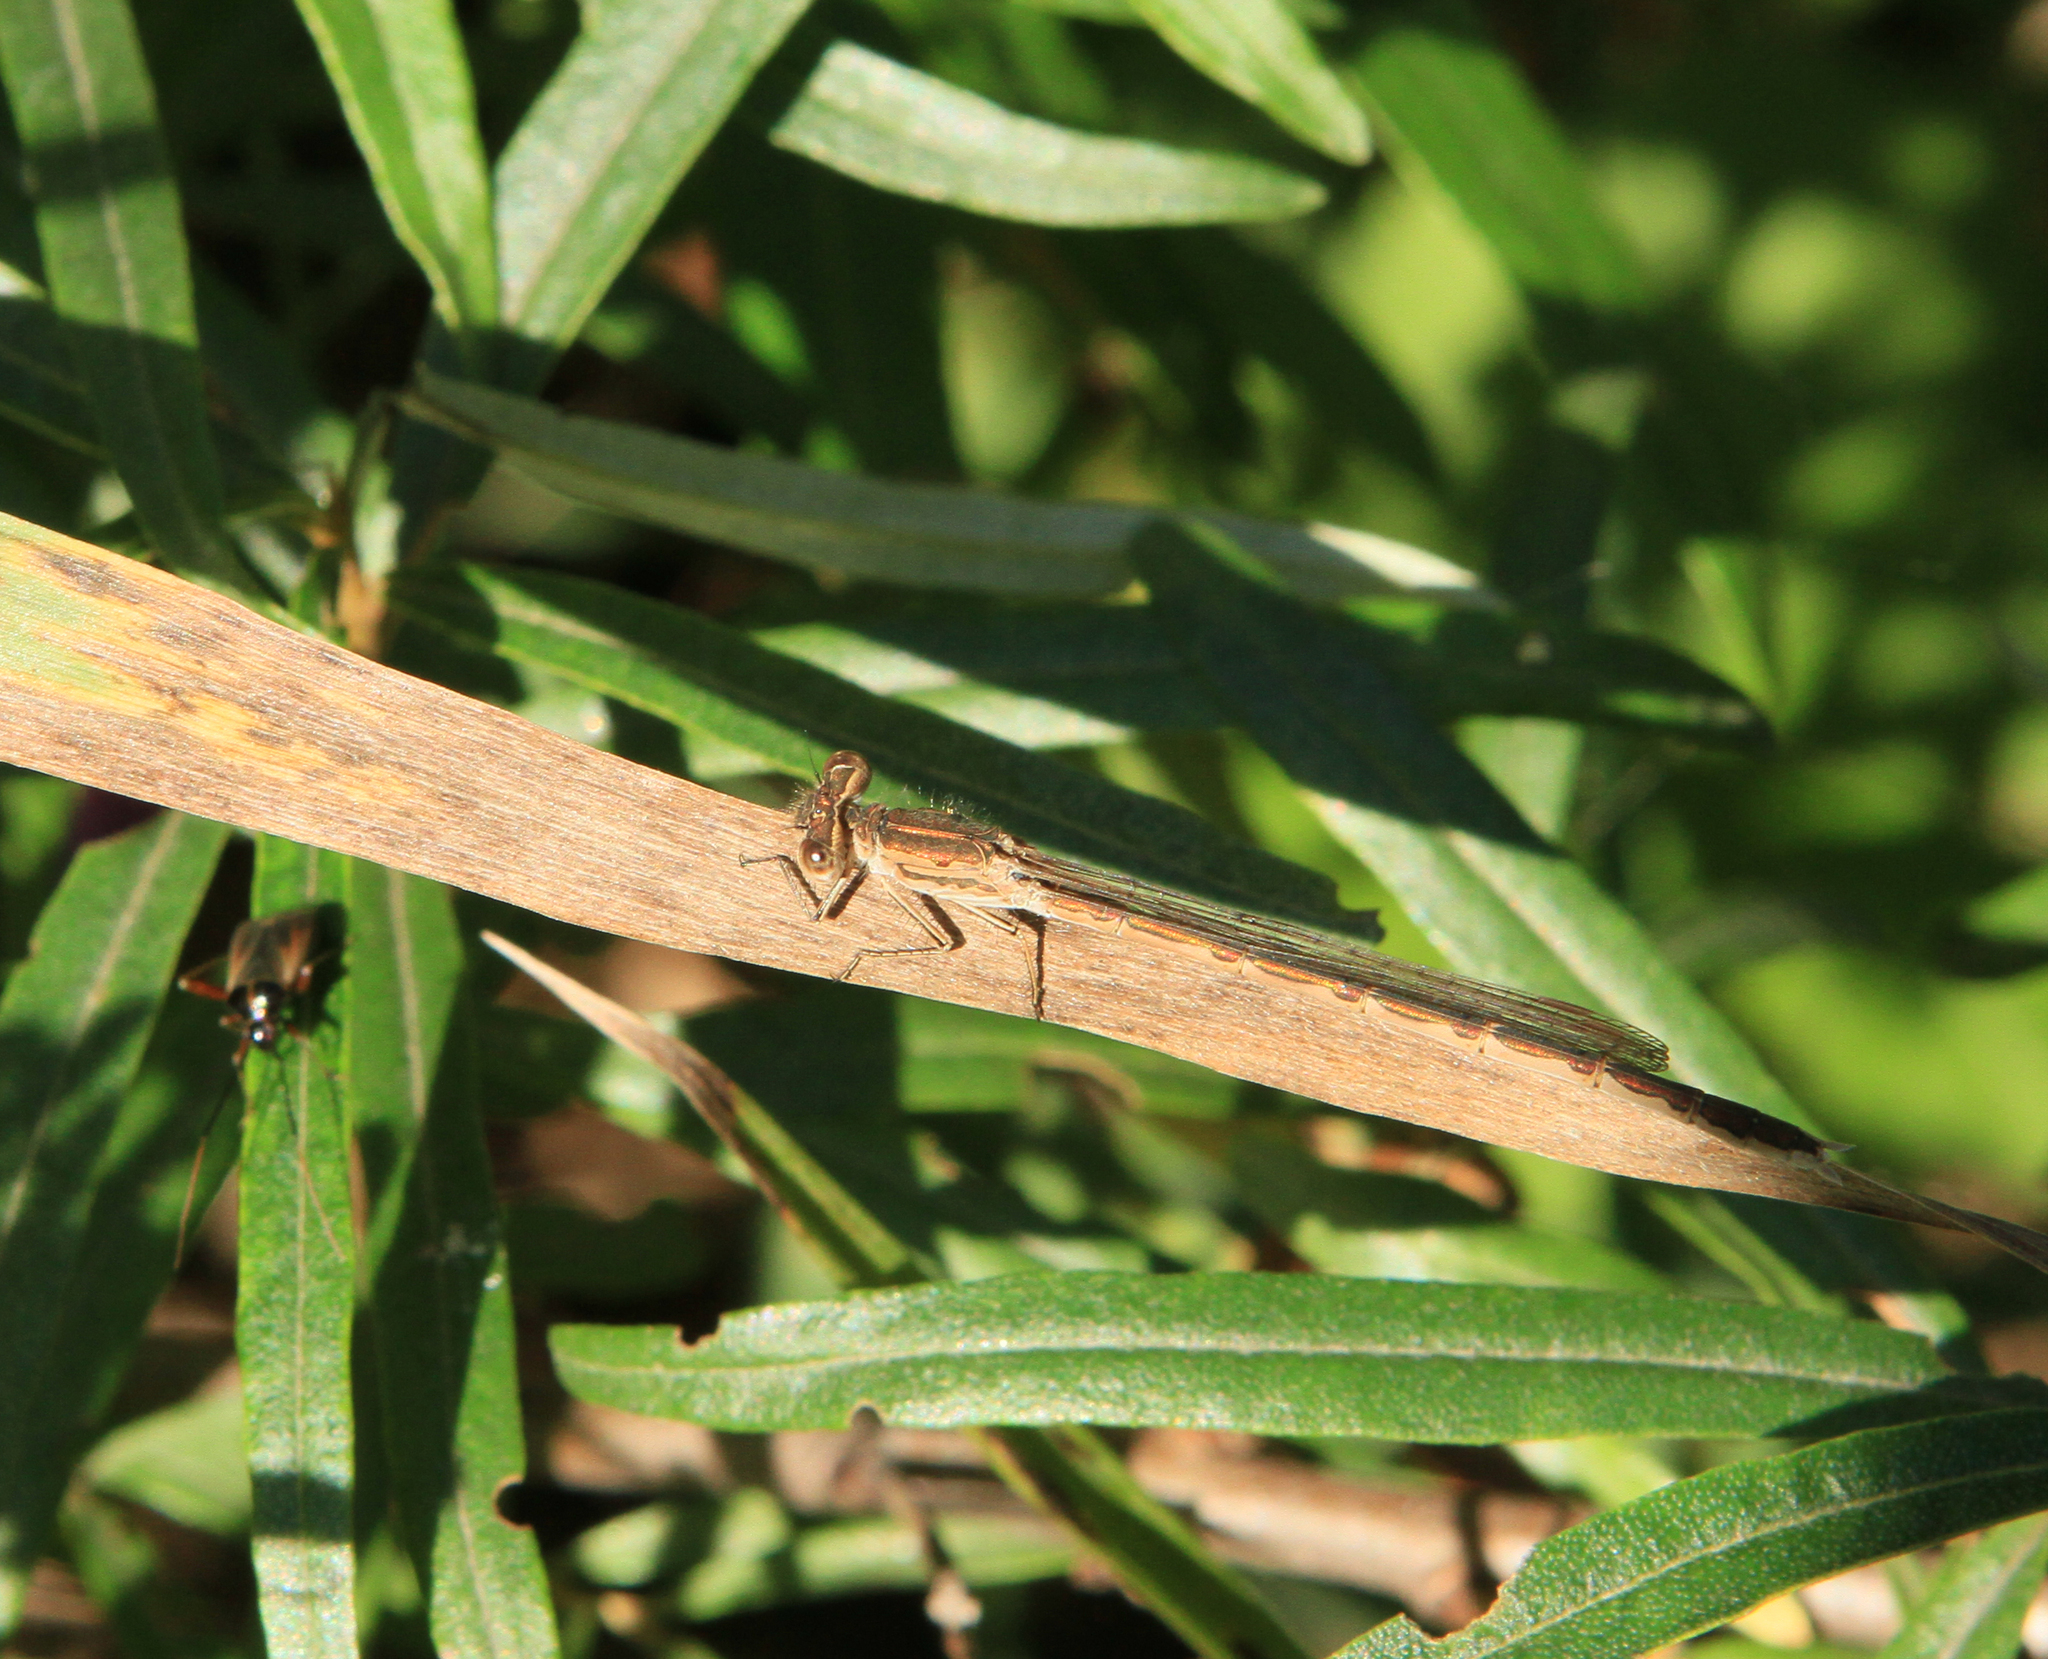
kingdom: Animalia
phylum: Arthropoda
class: Insecta
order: Odonata
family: Lestidae
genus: Sympecma
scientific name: Sympecma paedisca
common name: Siberian winter damsel
